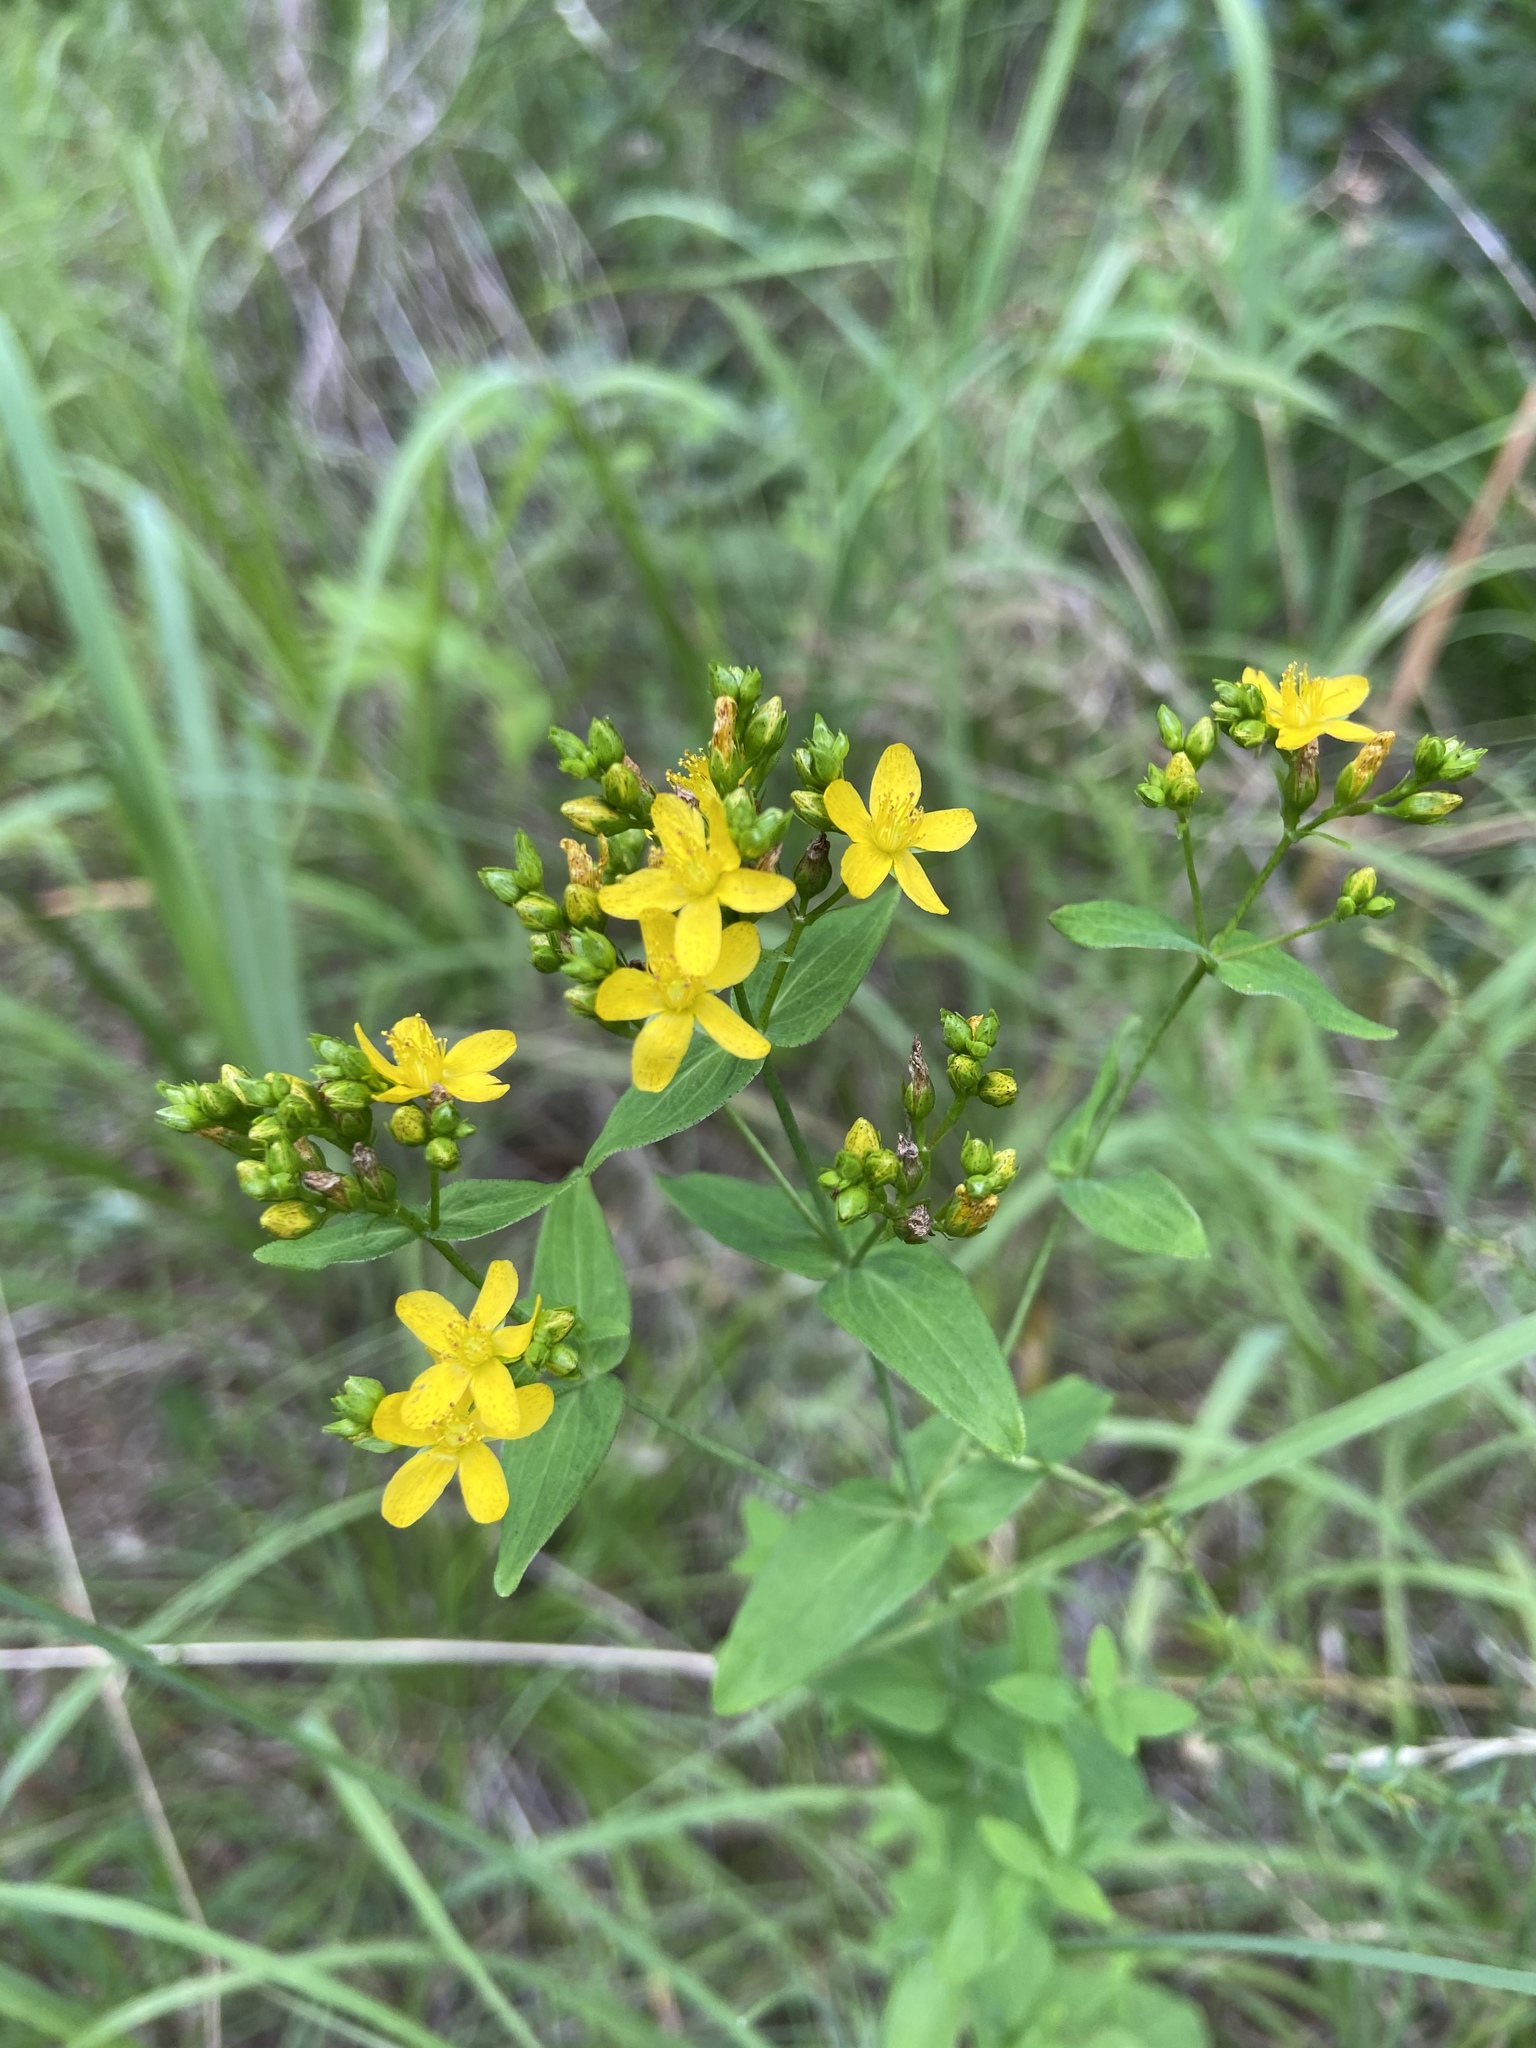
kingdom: Plantae
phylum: Tracheophyta
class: Magnoliopsida
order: Malpighiales
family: Hypericaceae
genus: Hypericum
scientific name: Hypericum punctatum
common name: Spotted st. john's-wort
